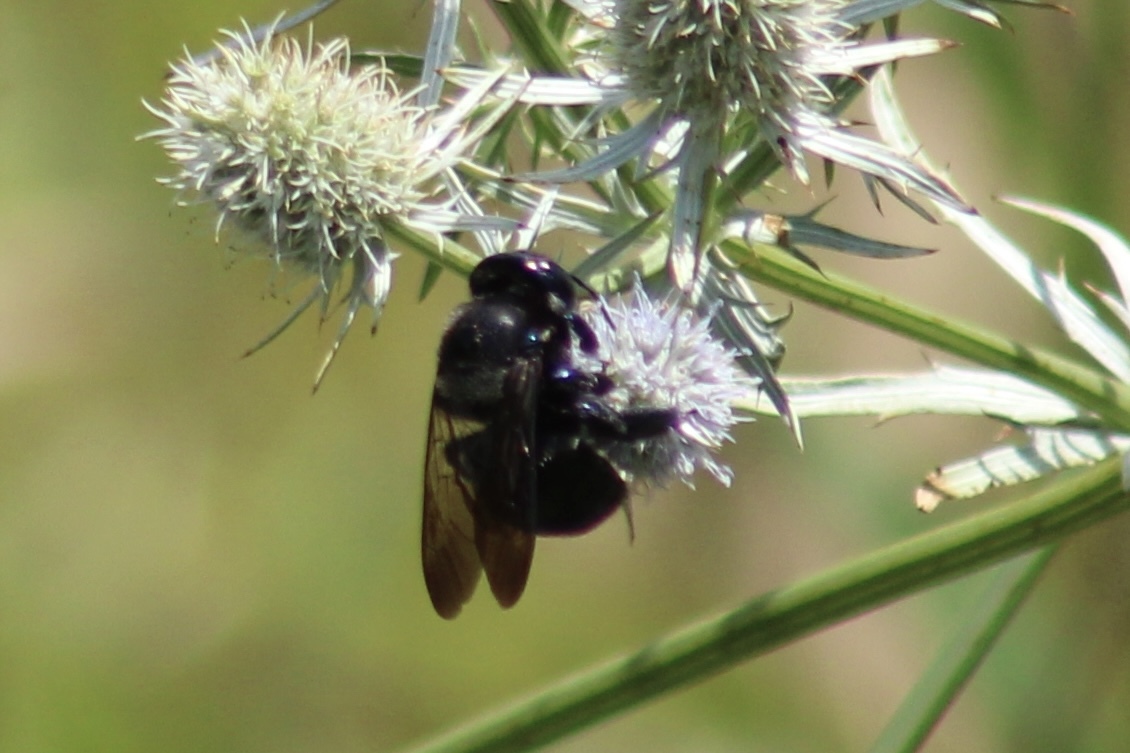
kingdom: Animalia
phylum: Arthropoda
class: Insecta
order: Hymenoptera
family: Apidae
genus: Xylocopa
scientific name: Xylocopa micans
